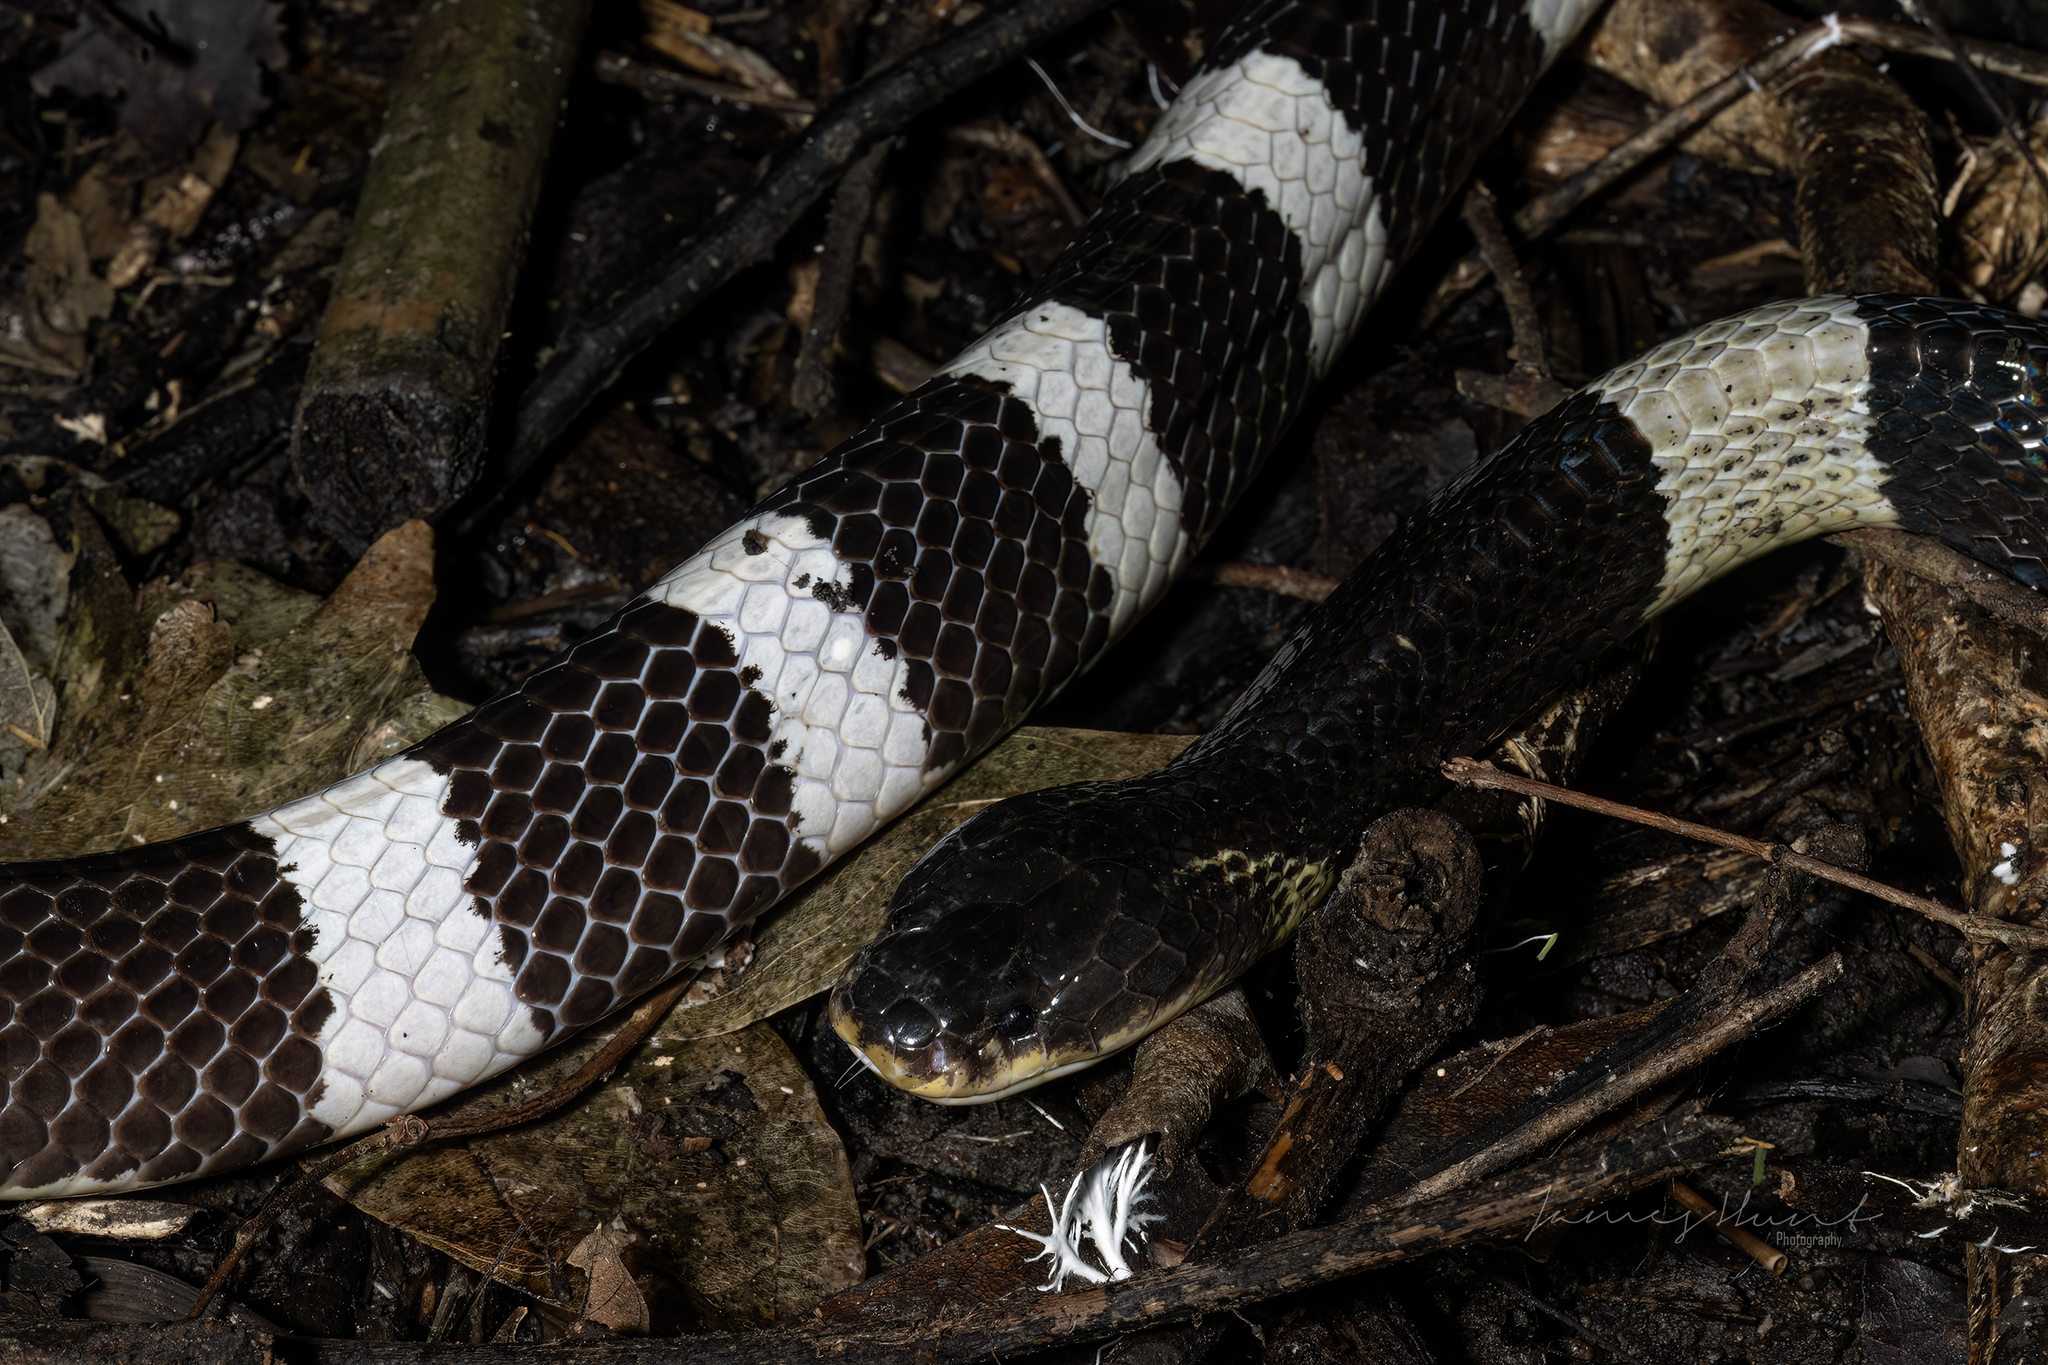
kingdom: Animalia
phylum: Chordata
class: Squamata
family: Elapidae
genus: Bungarus
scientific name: Bungarus candidus
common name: Blue krait/malayan krait
